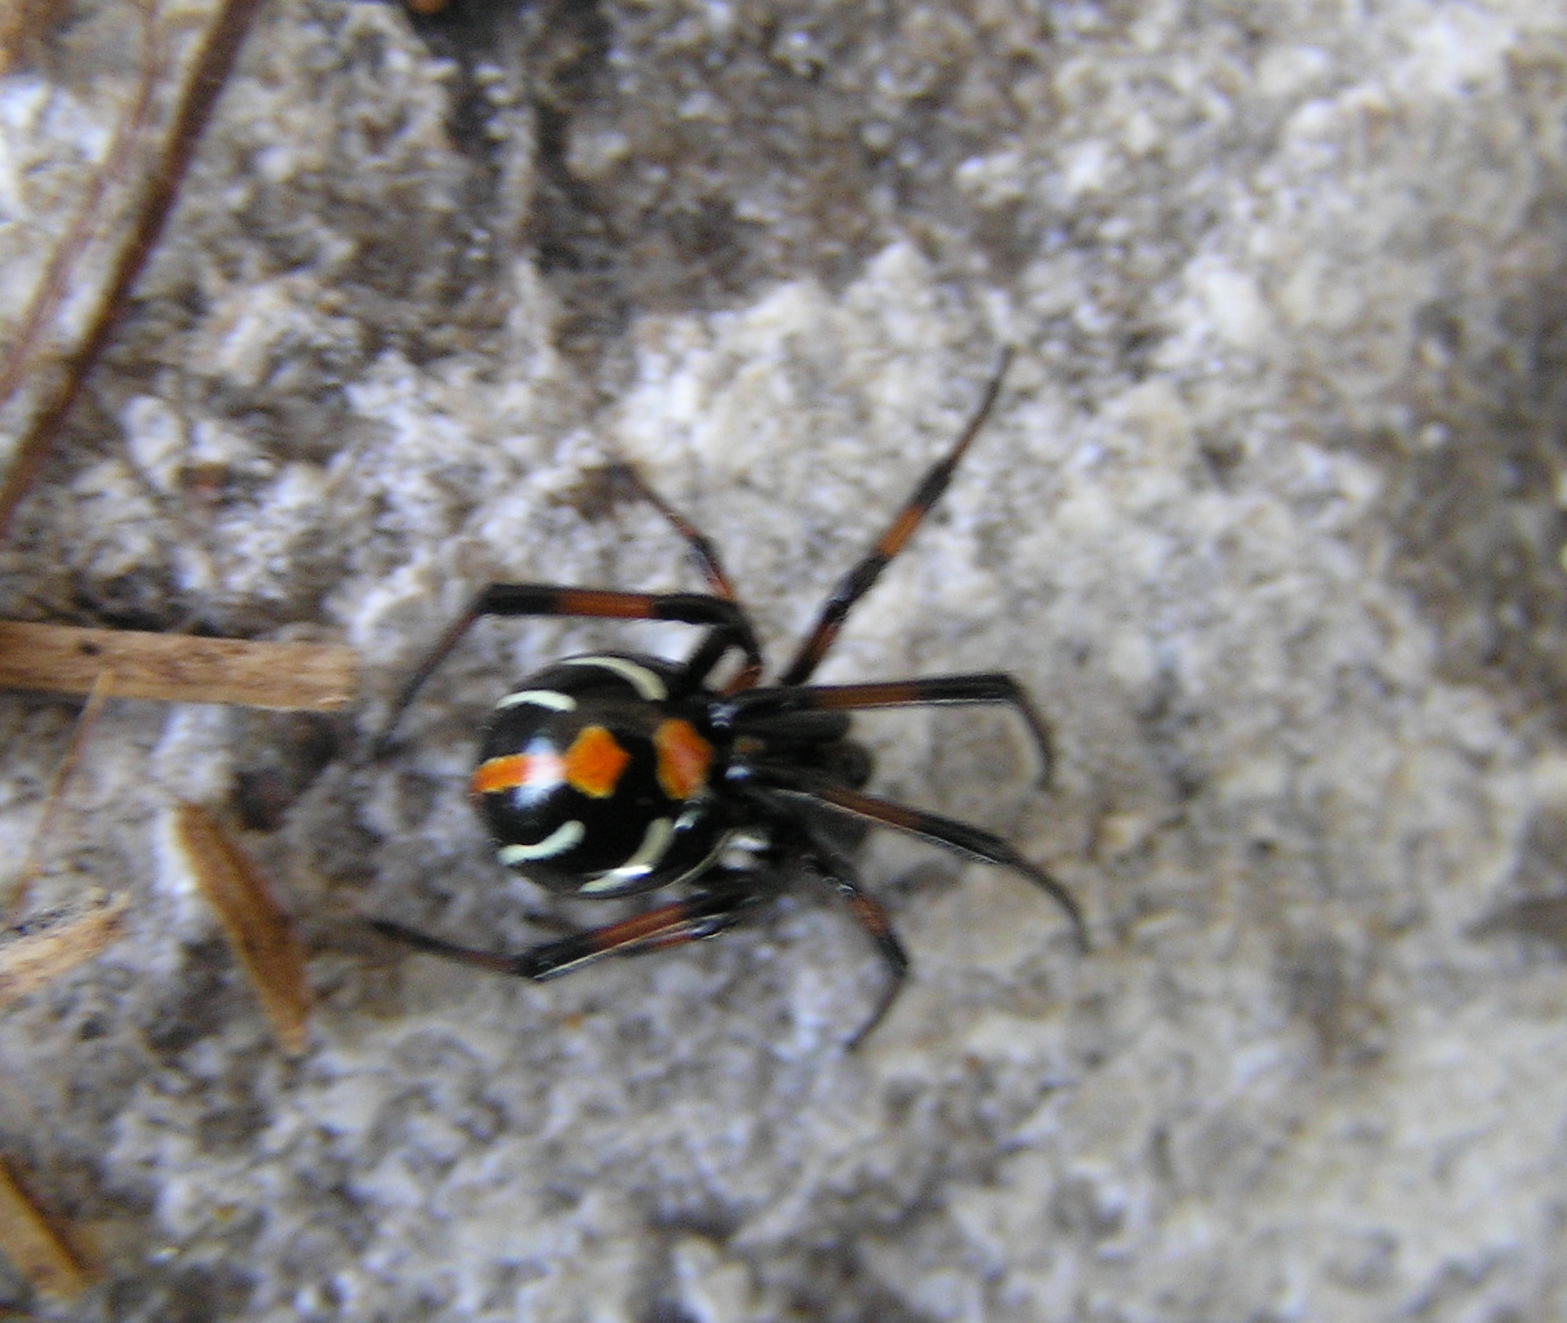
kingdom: Animalia
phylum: Arthropoda
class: Arachnida
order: Araneae
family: Theridiidae
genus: Latrodectus
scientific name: Latrodectus variolus
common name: Northern black widow
